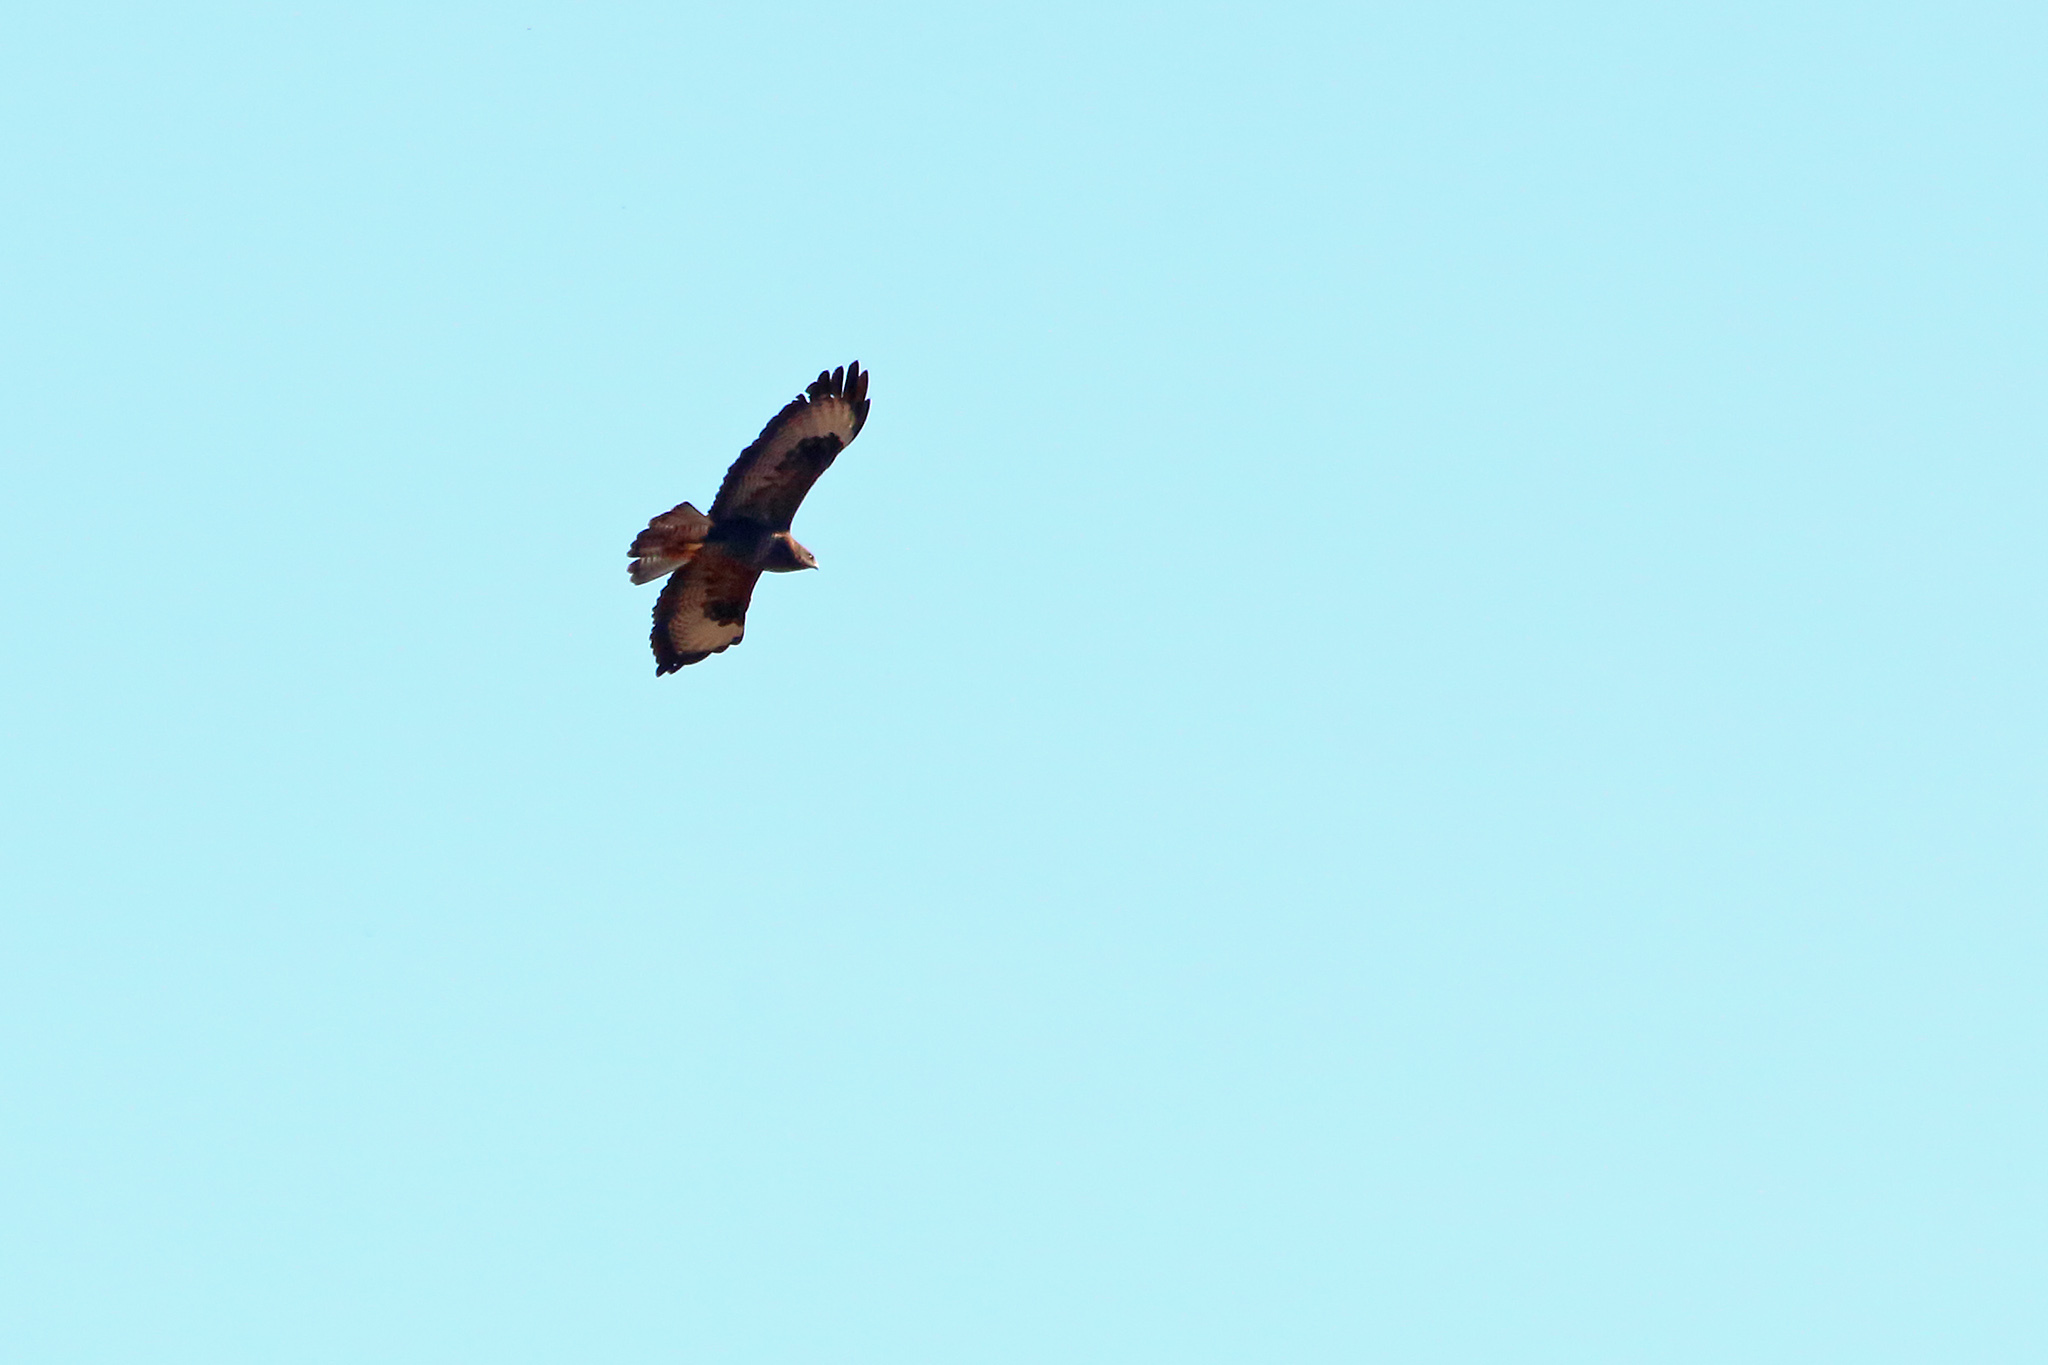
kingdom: Animalia
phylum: Chordata
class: Aves
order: Accipitriformes
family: Accipitridae
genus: Buteo
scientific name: Buteo buteo
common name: Common buzzard
